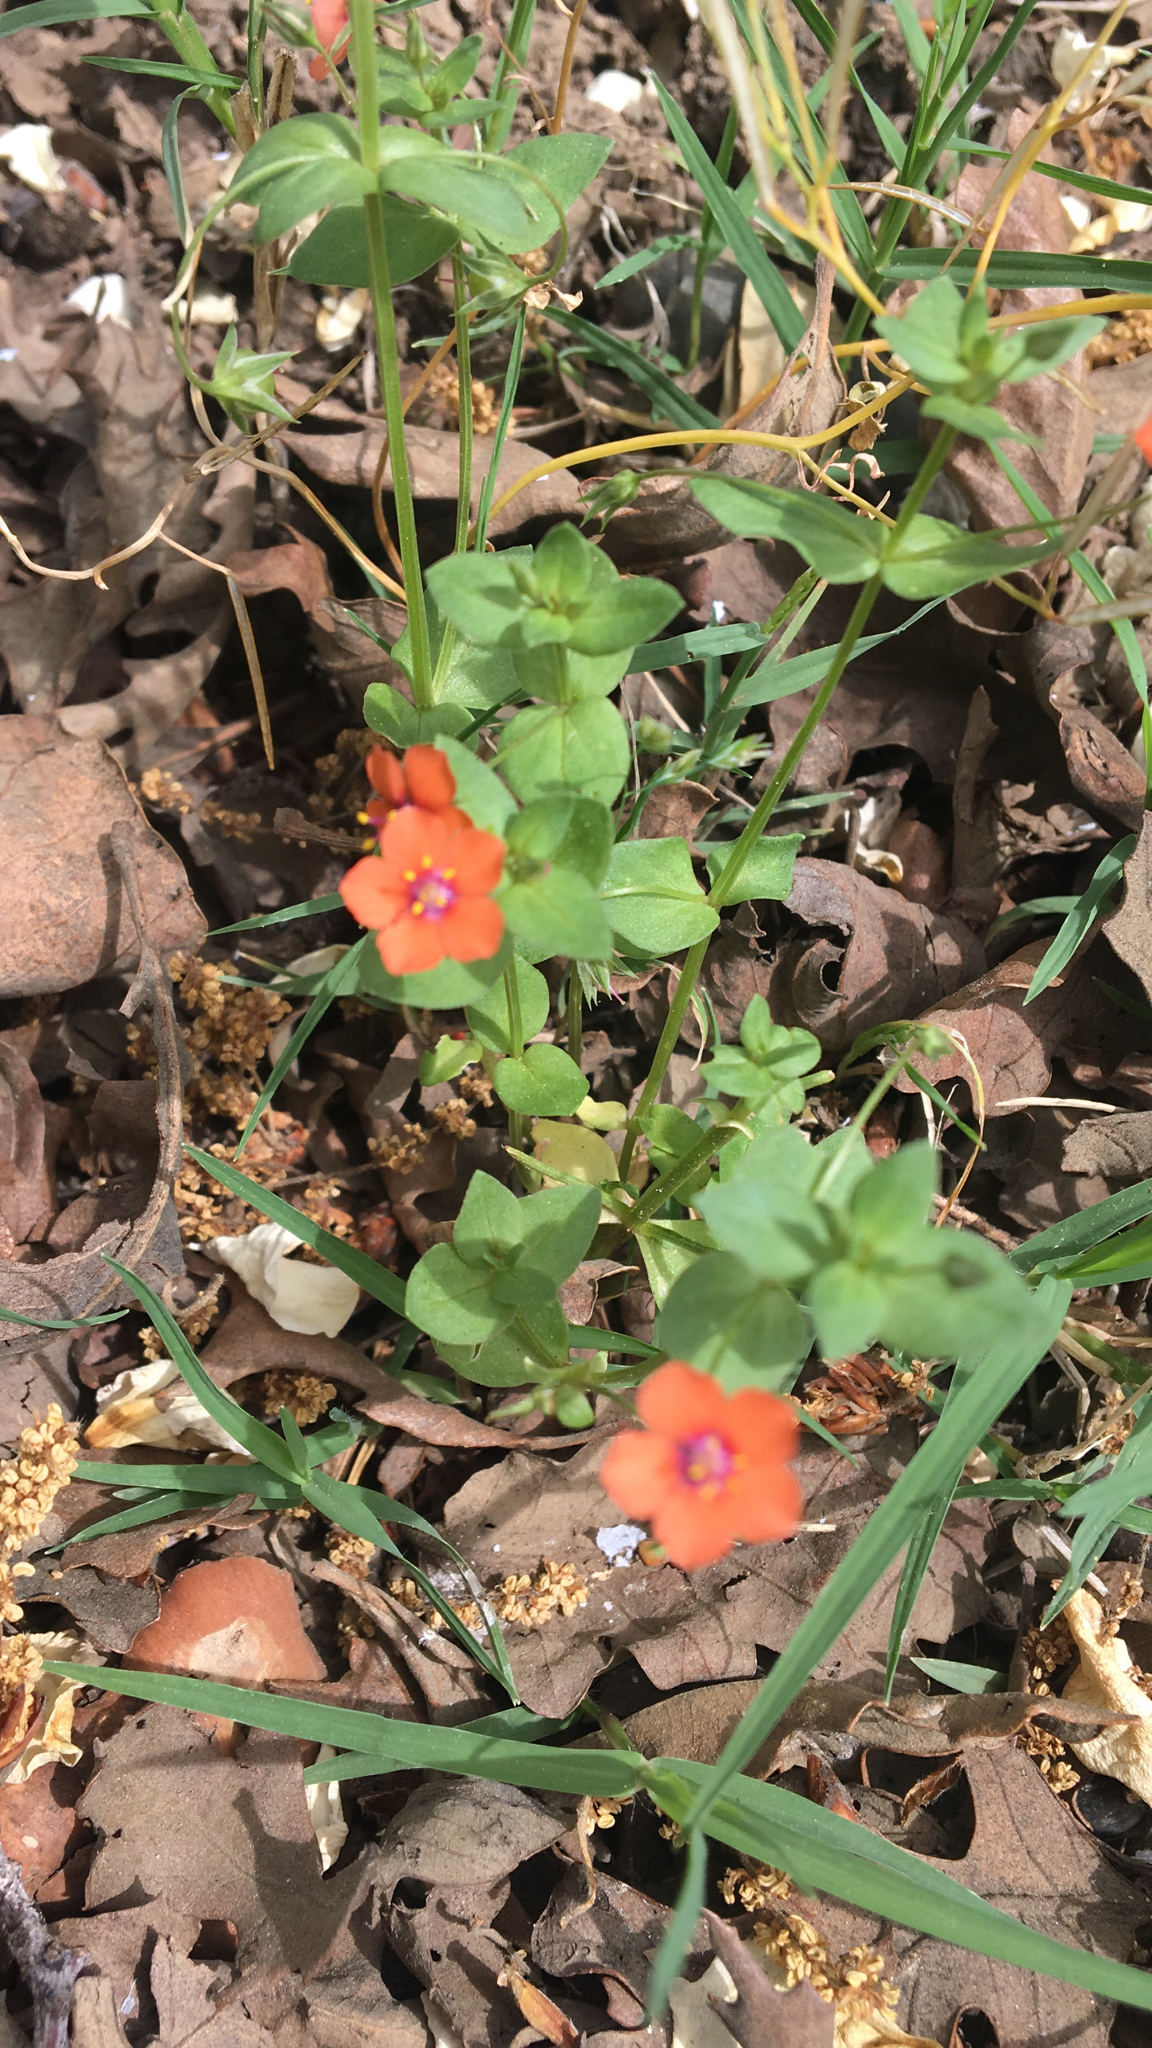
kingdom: Plantae
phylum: Tracheophyta
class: Magnoliopsida
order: Ericales
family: Primulaceae
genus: Lysimachia
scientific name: Lysimachia arvensis
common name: Scarlet pimpernel
